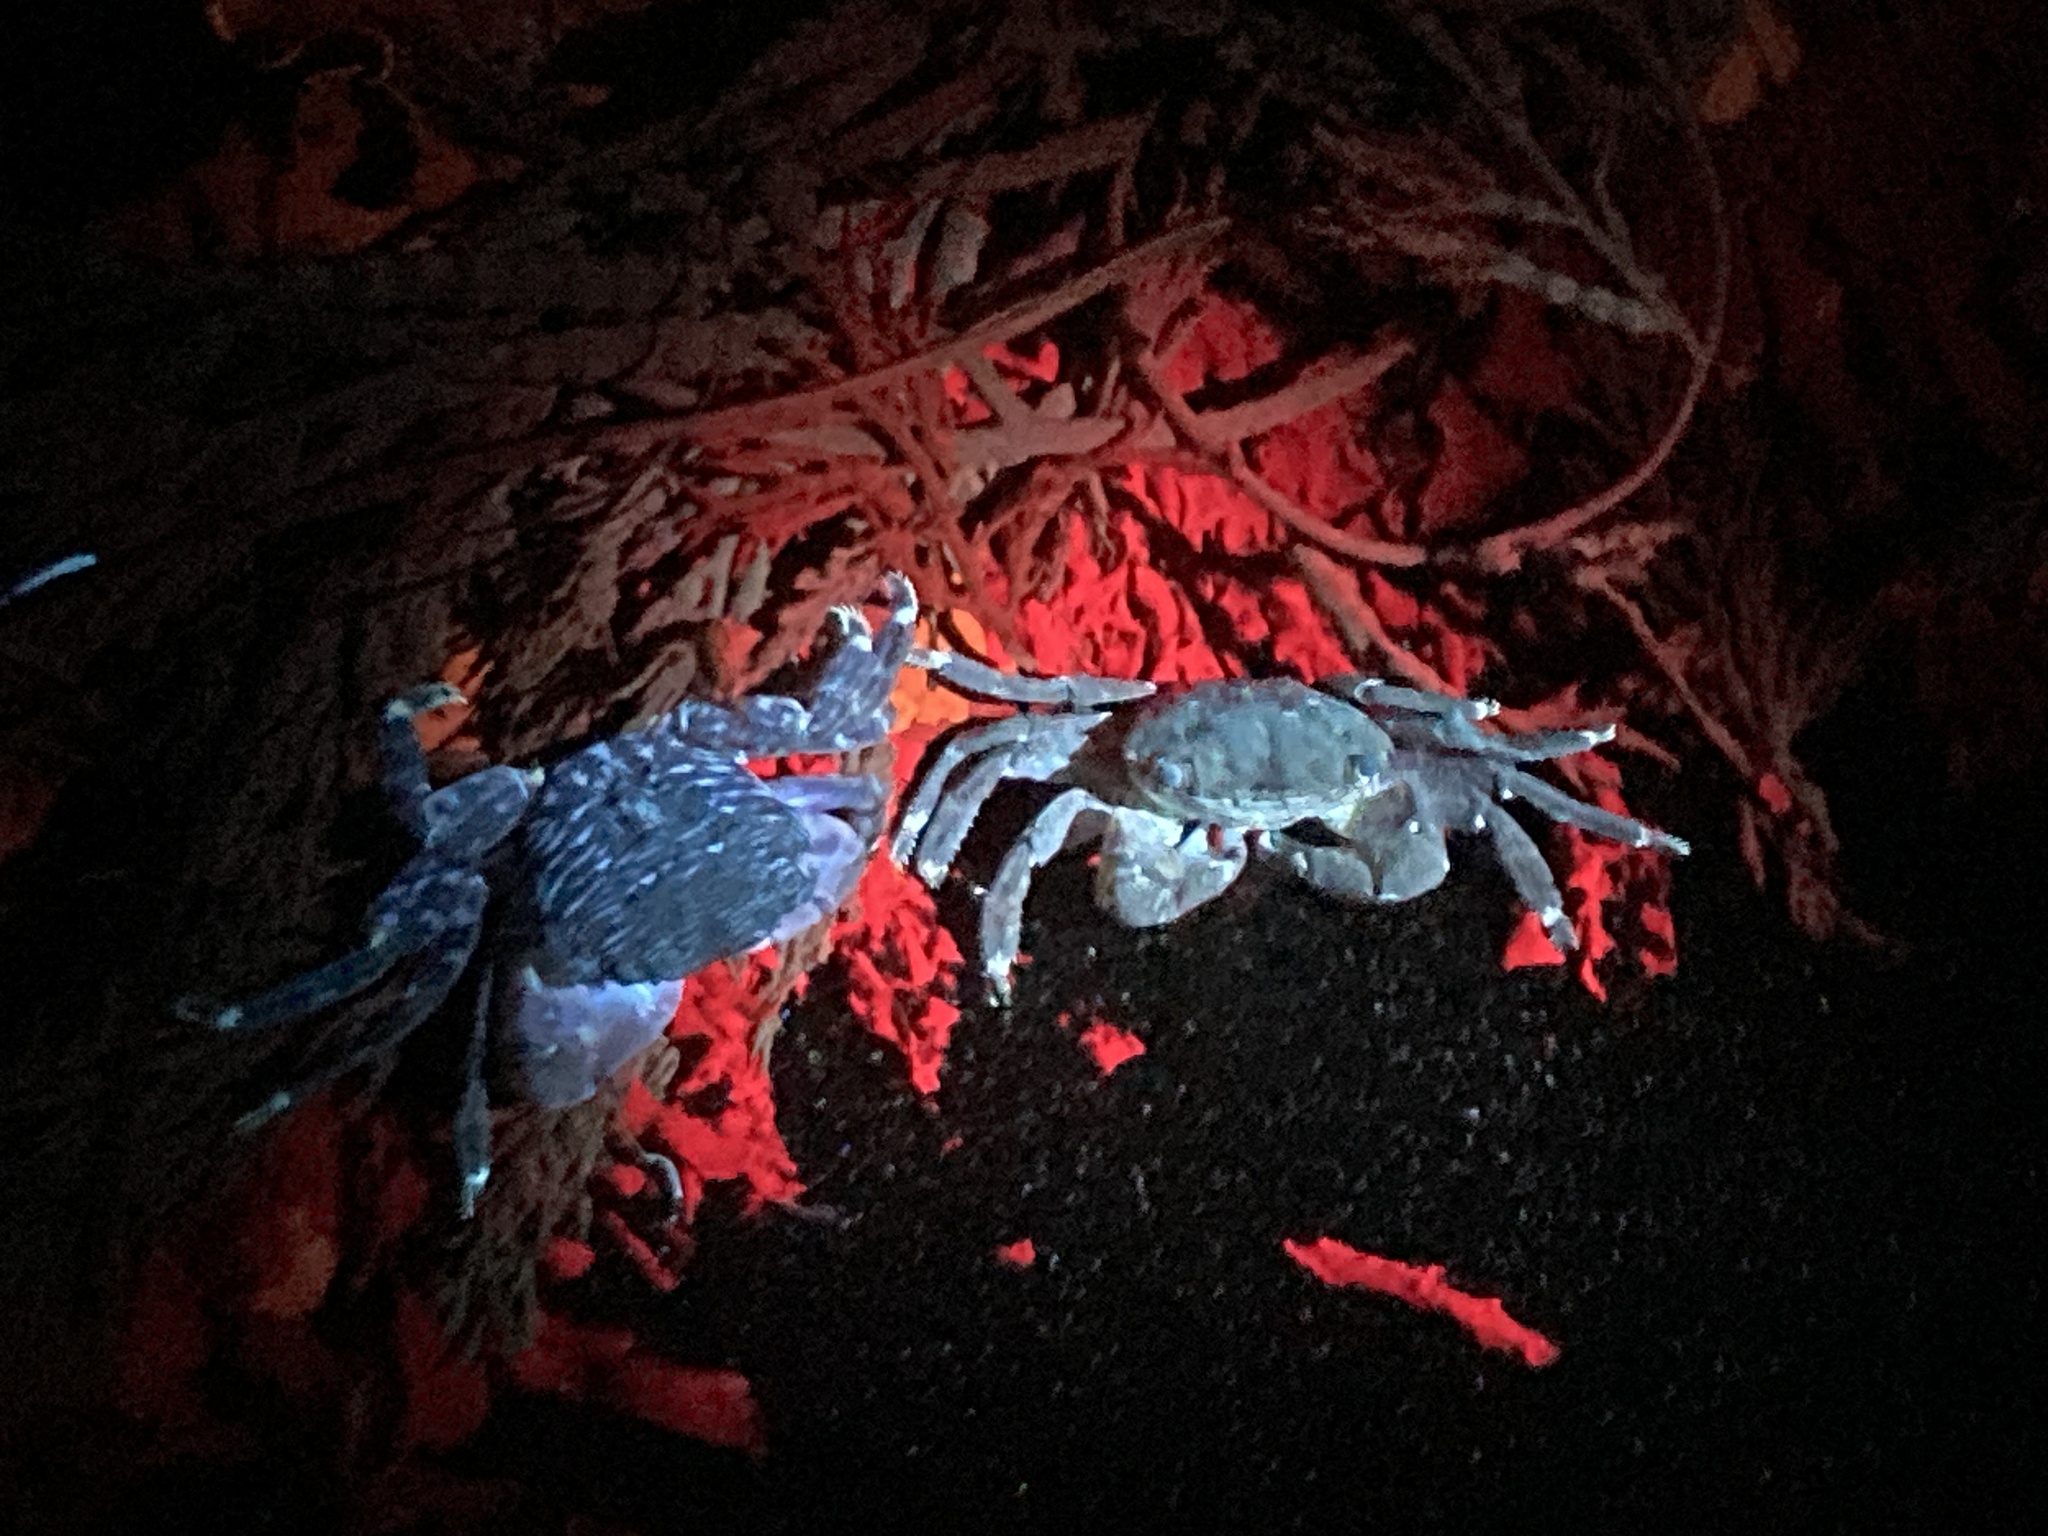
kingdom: Animalia
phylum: Arthropoda
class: Malacostraca
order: Decapoda
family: Grapsidae
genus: Pachygrapsus
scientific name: Pachygrapsus crassipes
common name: Striped shore crab
